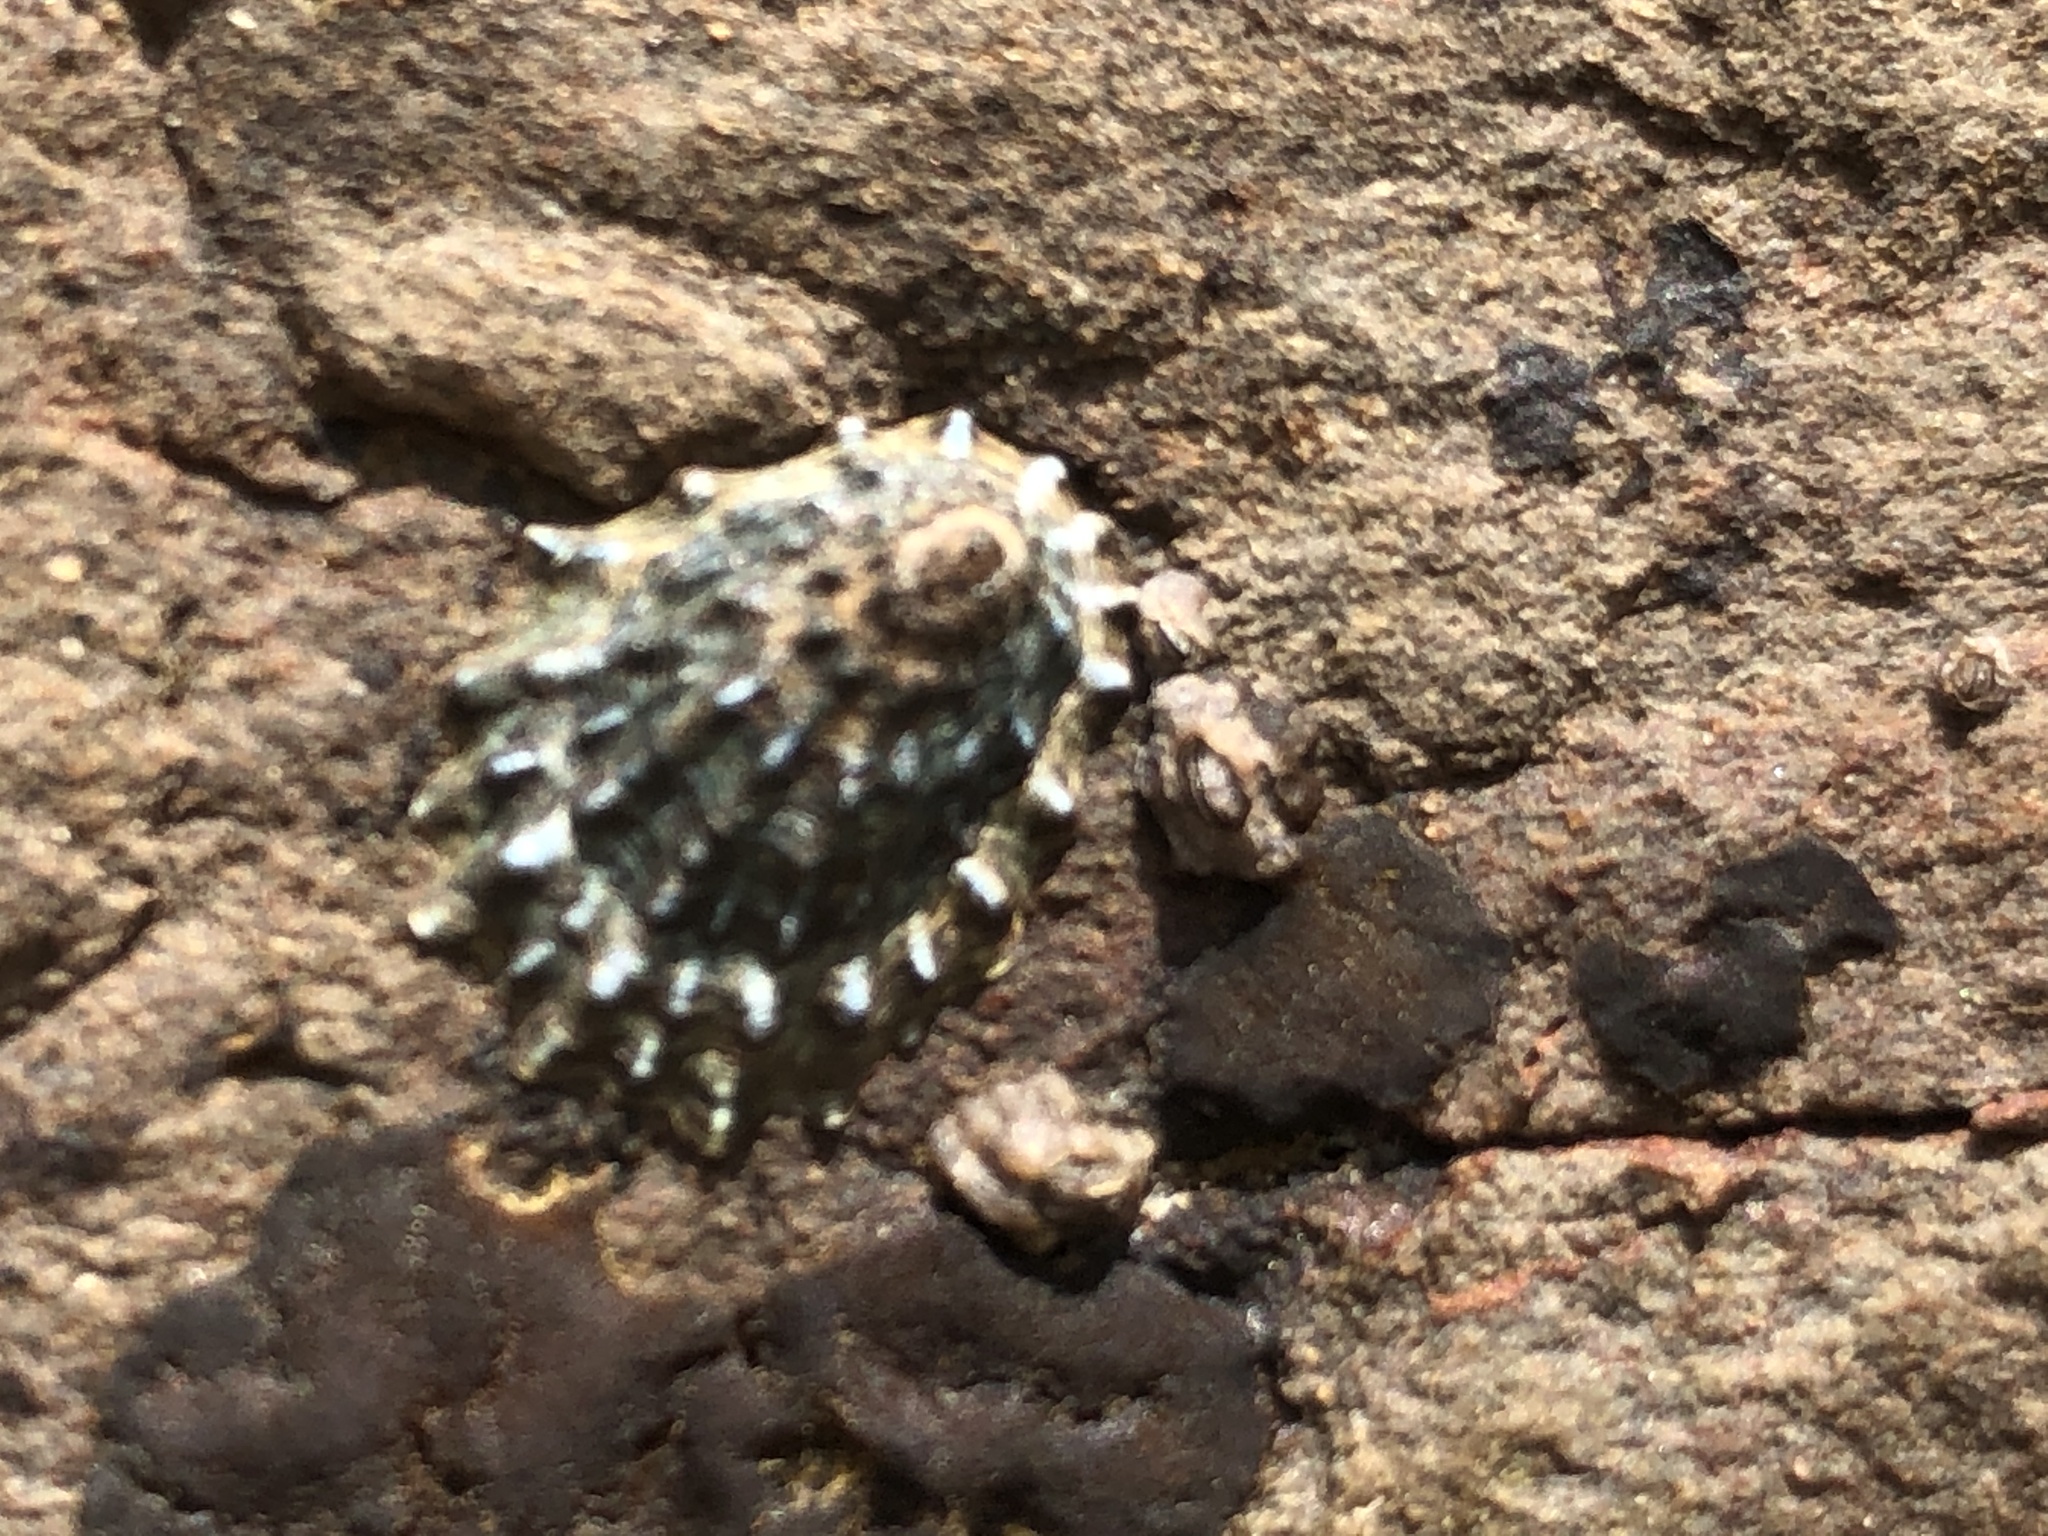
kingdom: Animalia
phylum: Mollusca
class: Gastropoda
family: Lottiidae
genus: Lottia
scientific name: Lottia scabra
